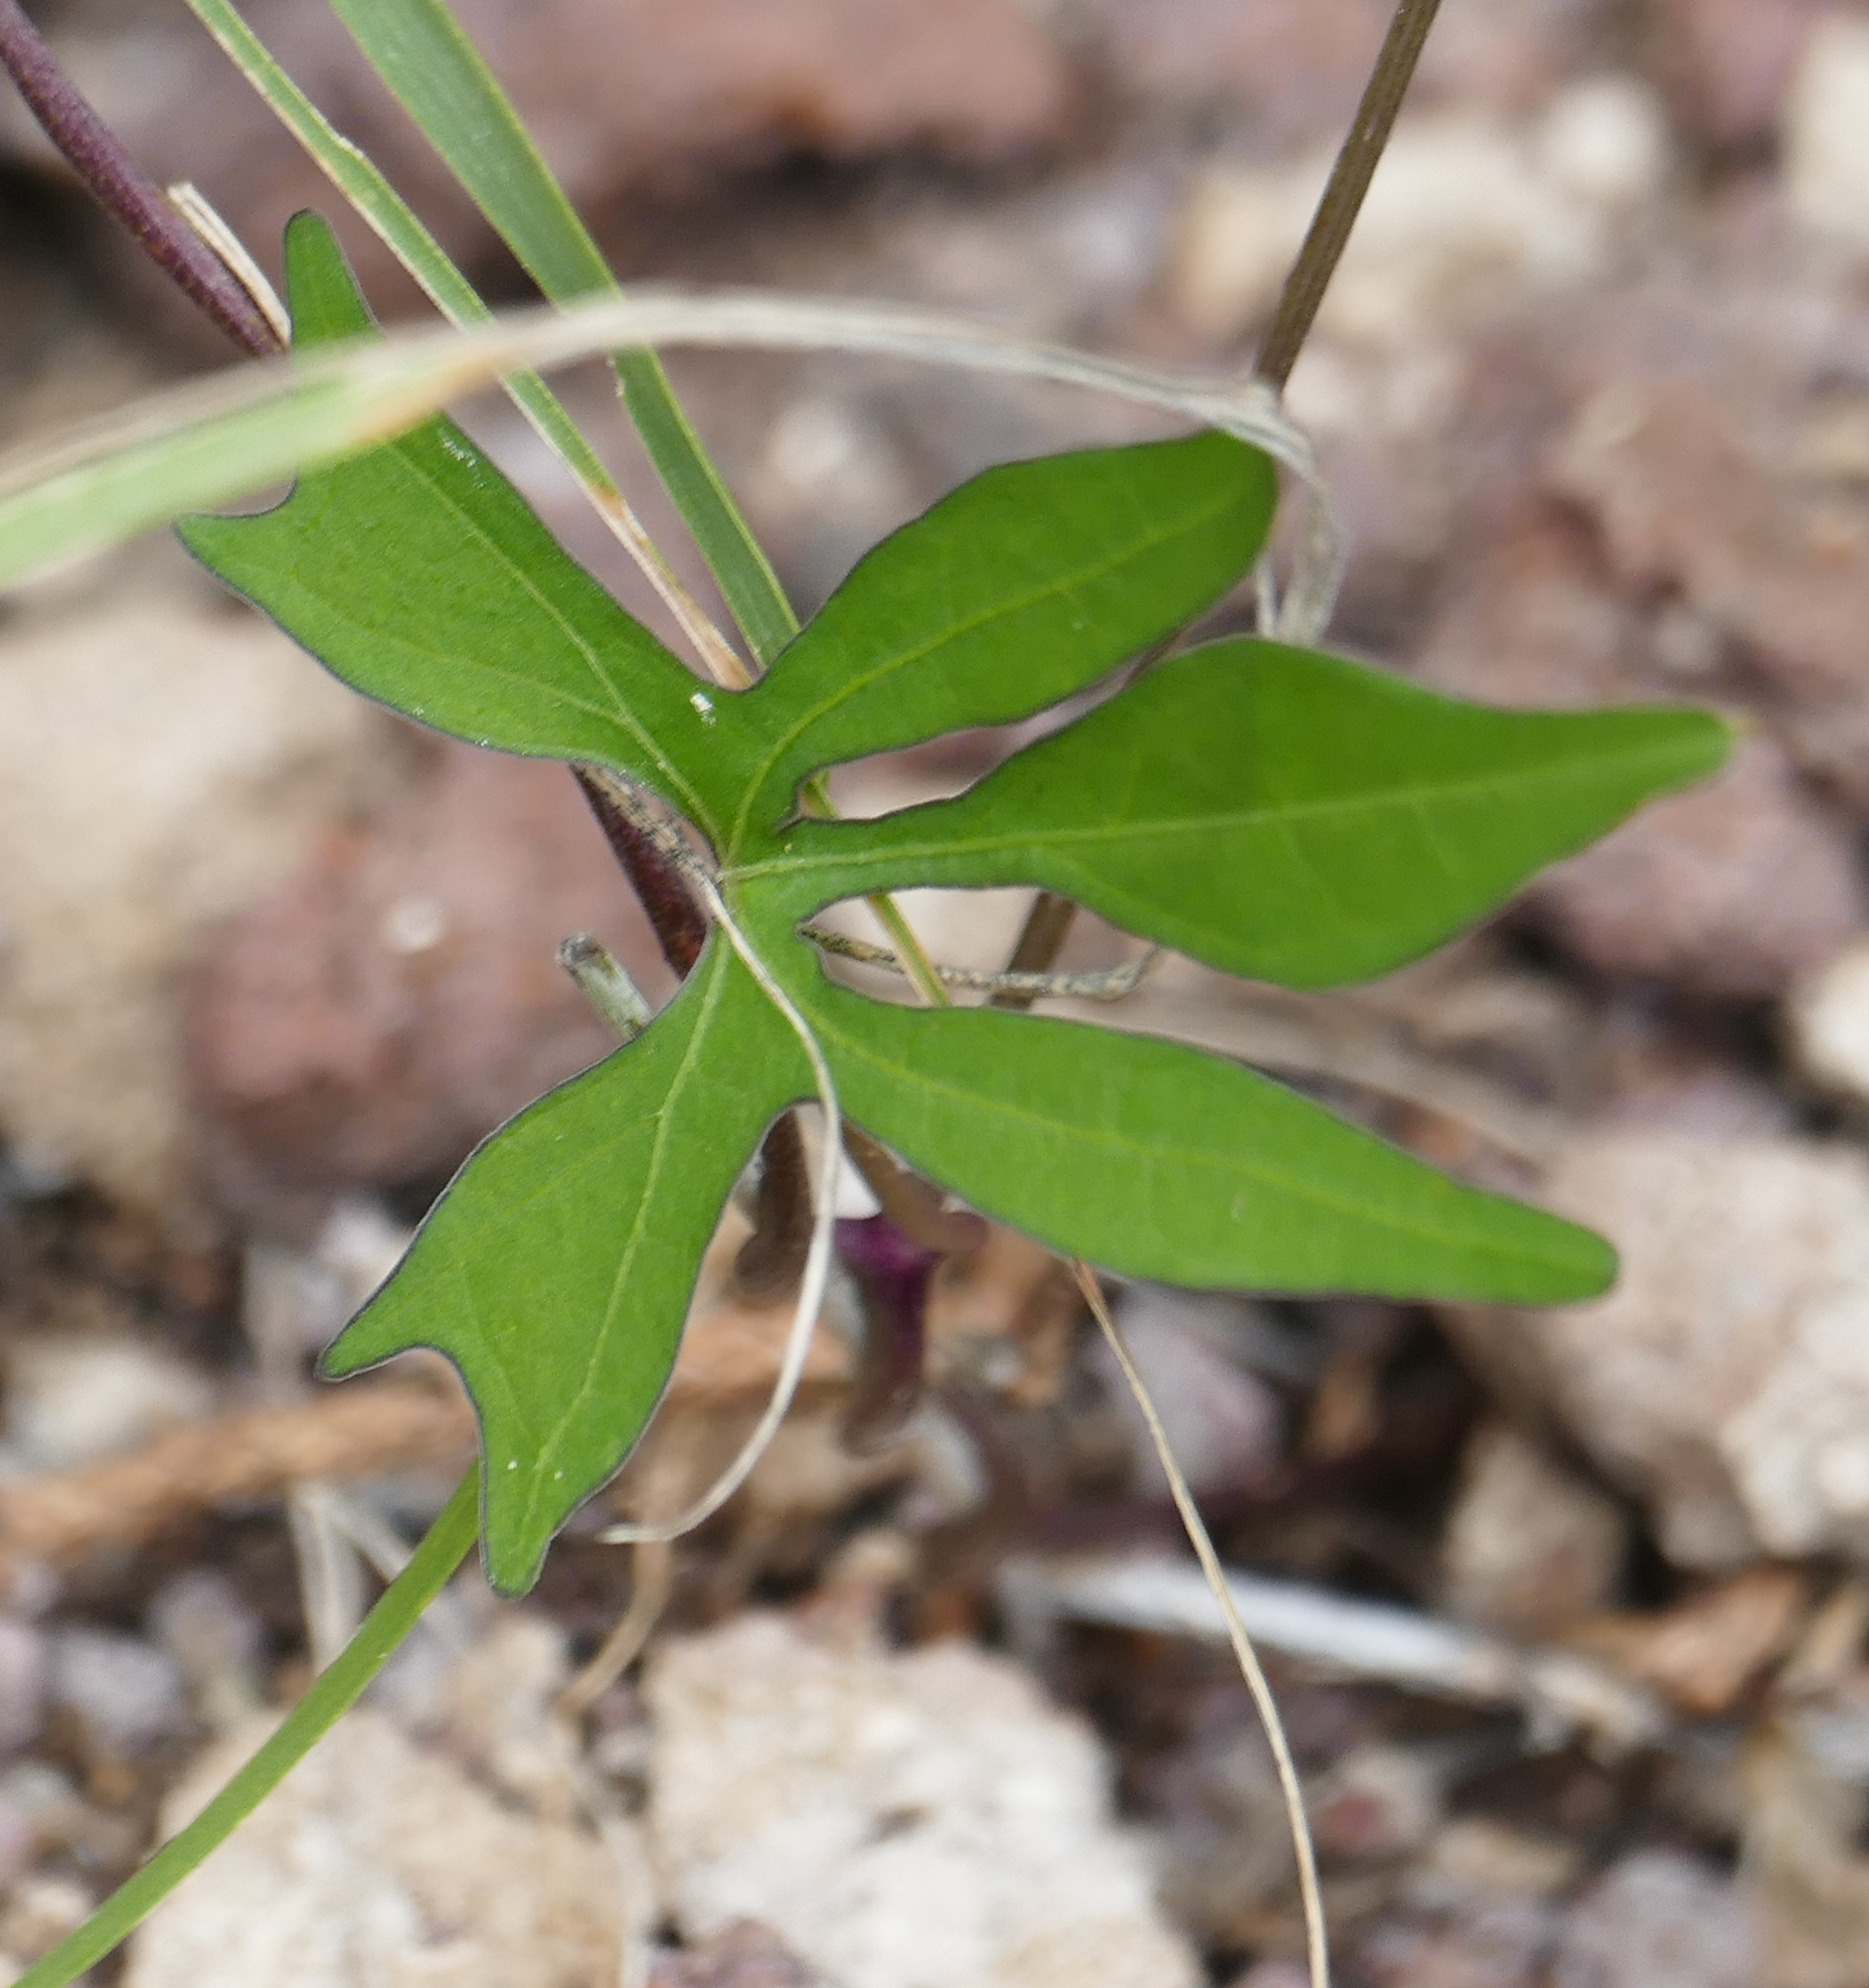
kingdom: Plantae
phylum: Tracheophyta
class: Magnoliopsida
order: Solanales
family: Convolvulaceae
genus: Ipomoea
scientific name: Ipomoea cristulata
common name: Trans-pecos morning-glory
